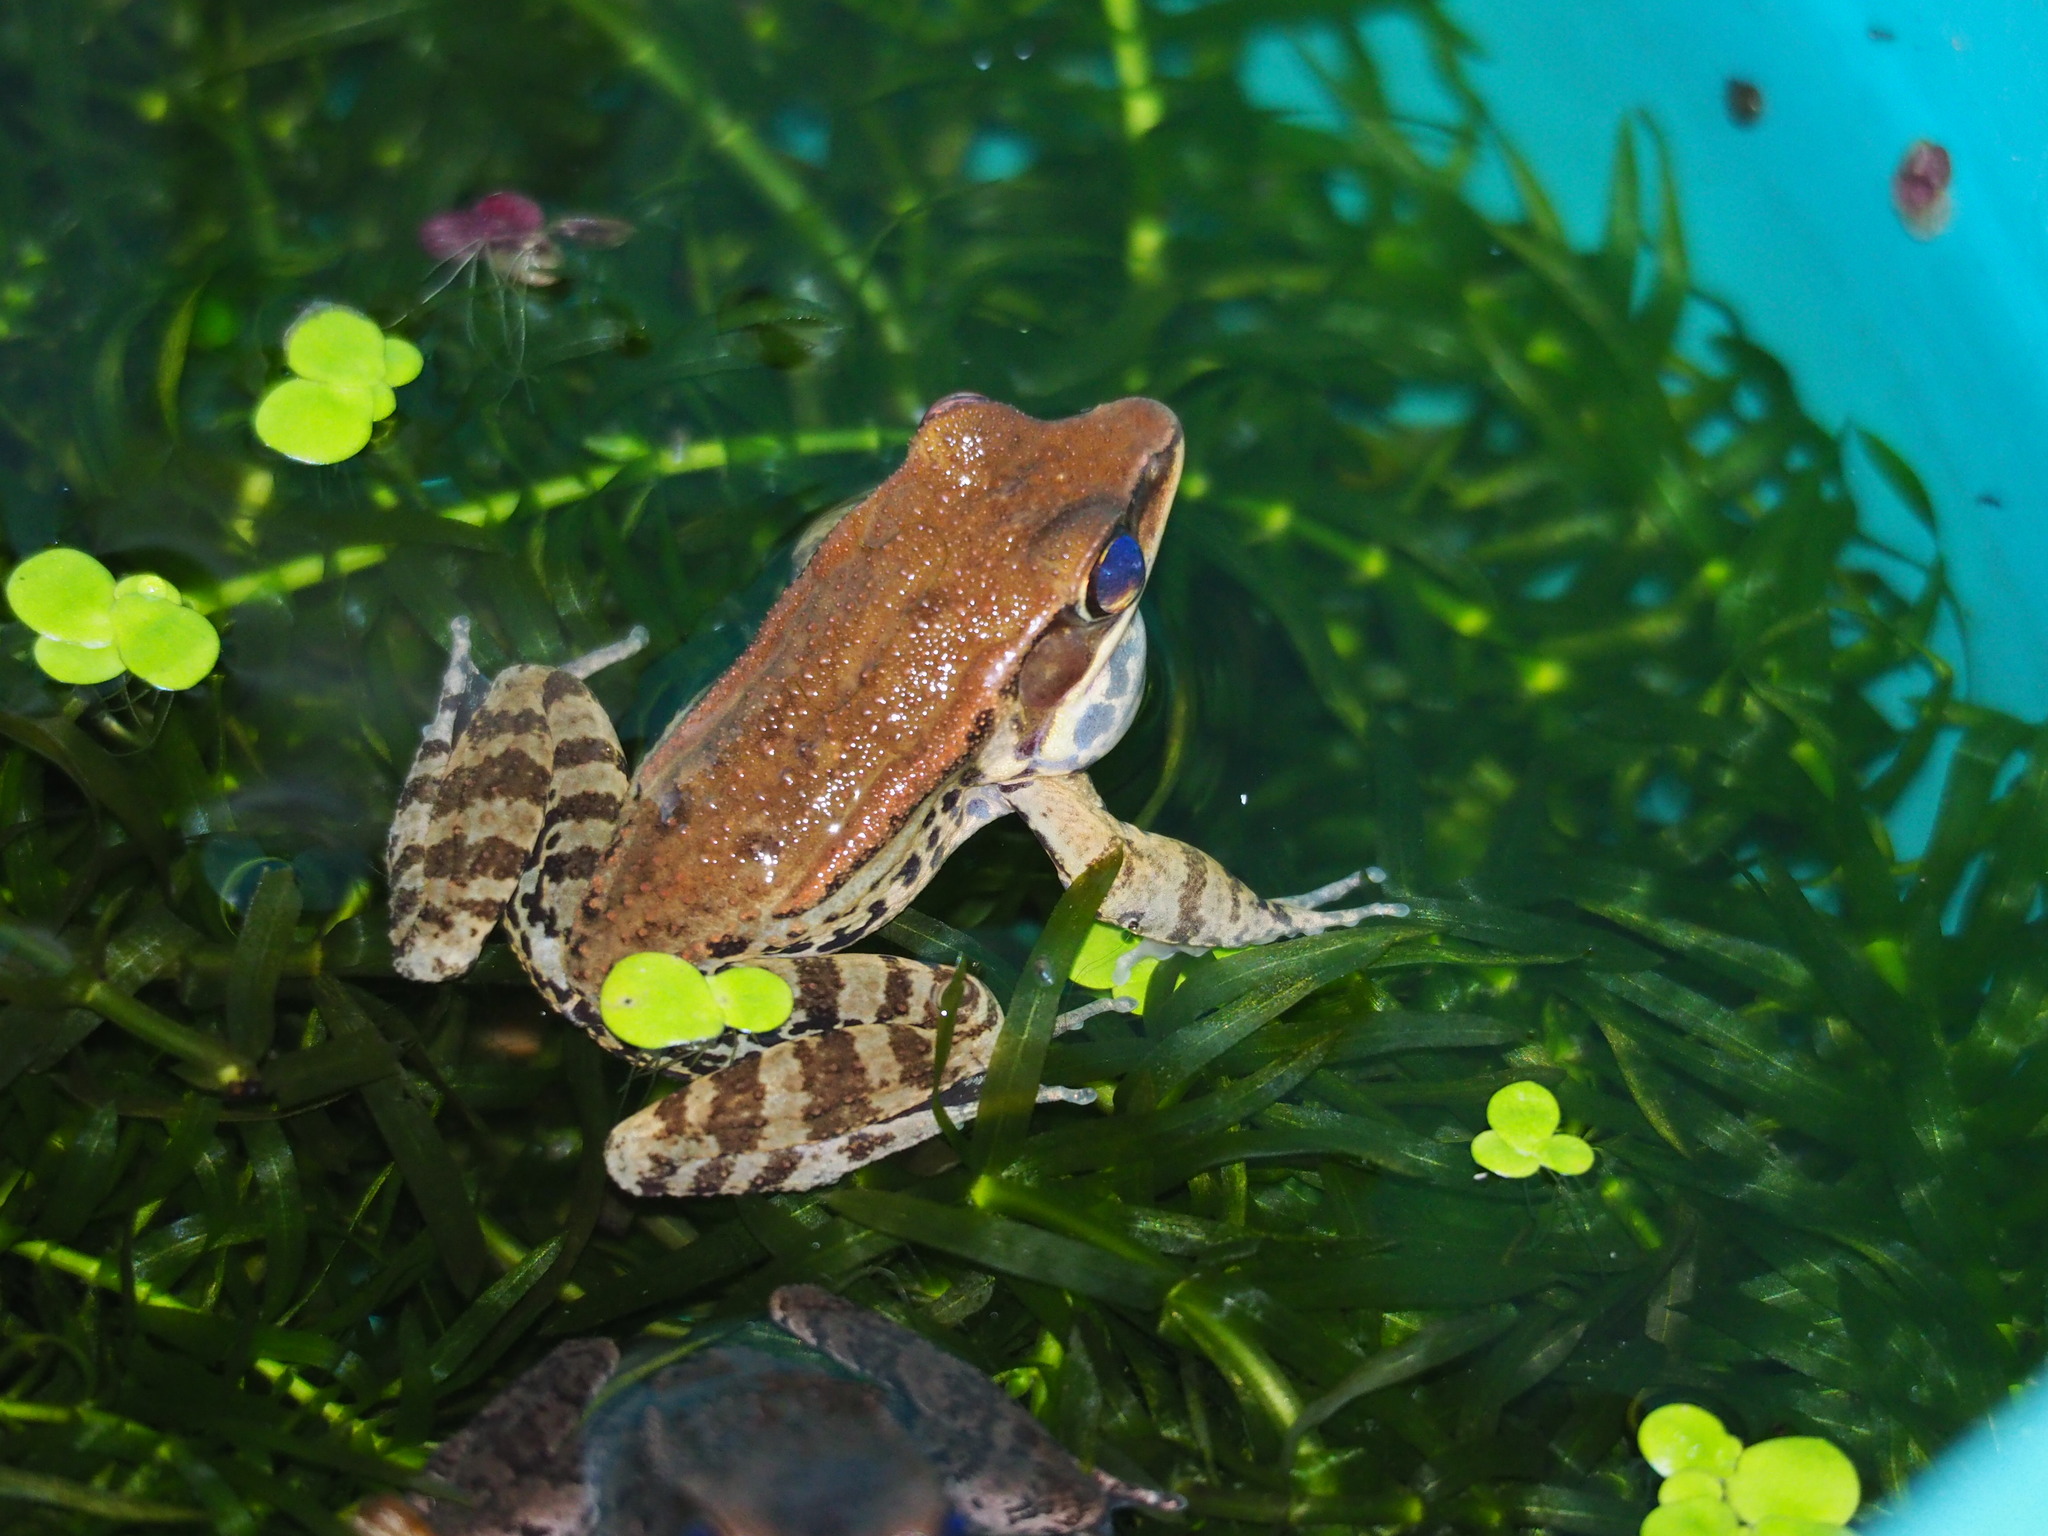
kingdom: Animalia
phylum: Chordata
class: Amphibia
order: Anura
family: Ranidae
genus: Hylarana
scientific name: Hylarana latouchii
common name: Broad-folded frog
